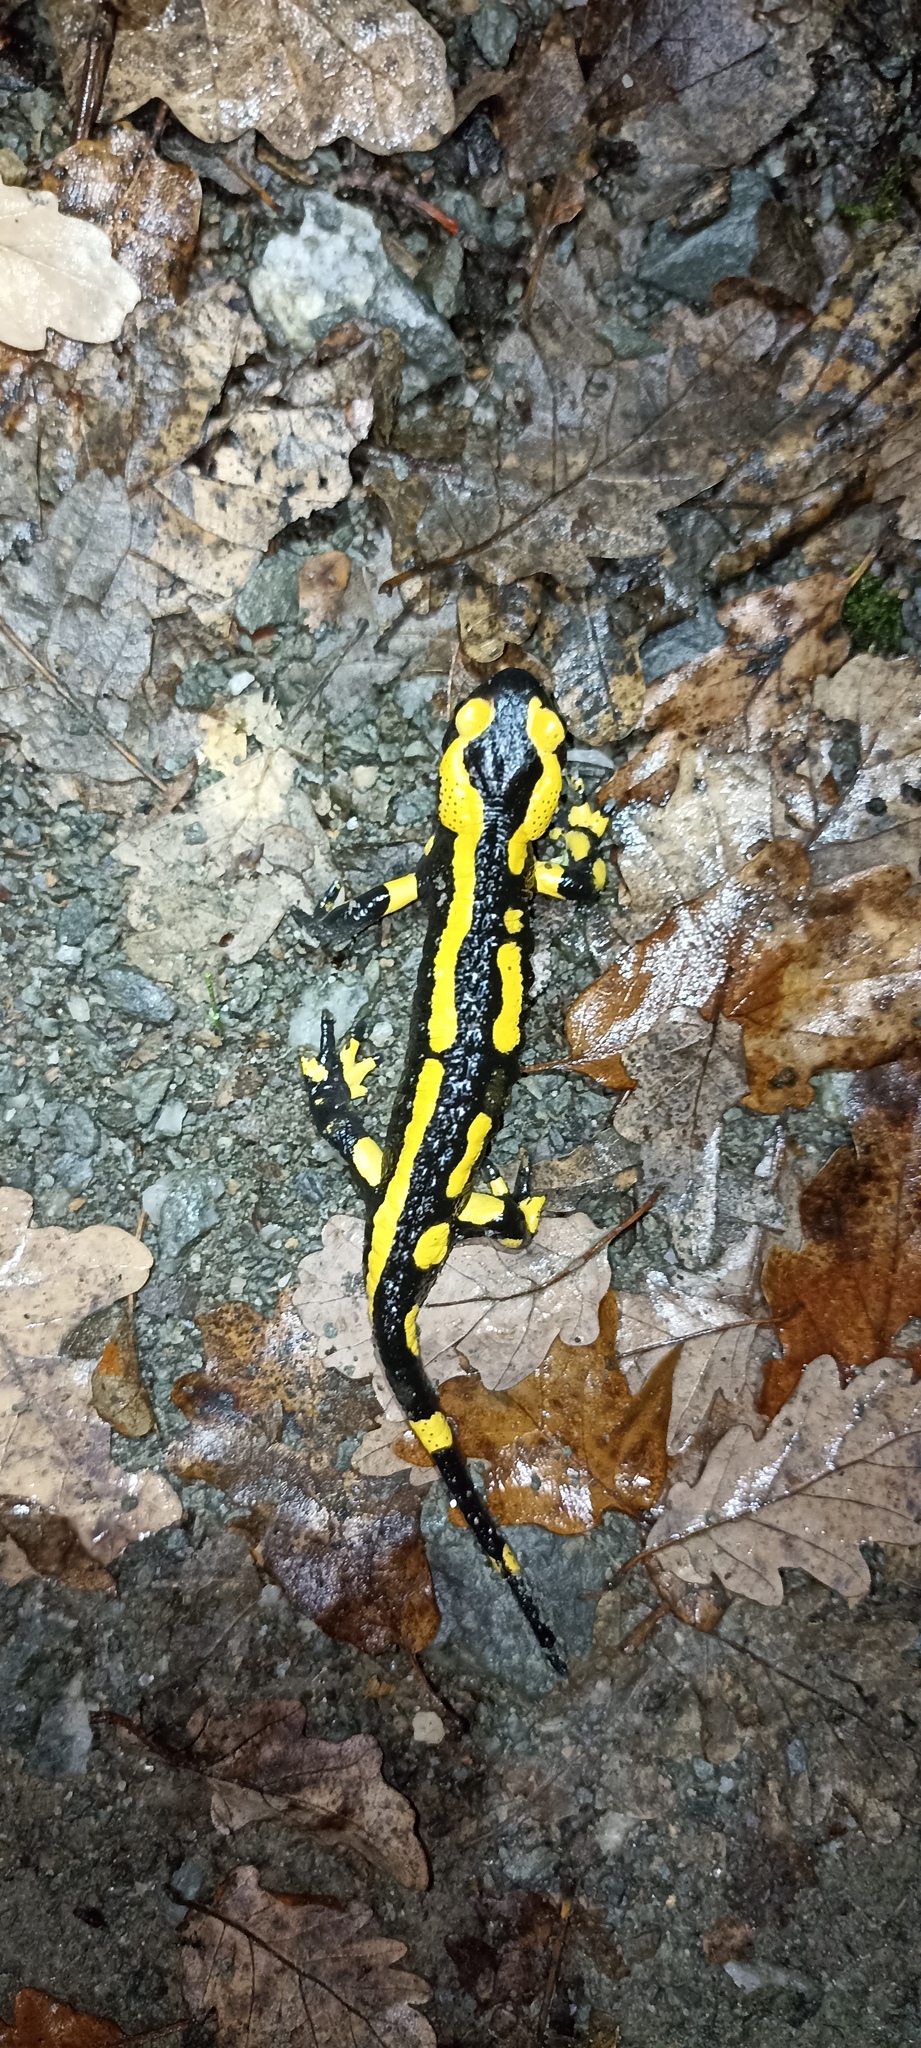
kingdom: Animalia
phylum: Chordata
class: Amphibia
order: Caudata
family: Salamandridae
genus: Salamandra
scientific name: Salamandra salamandra
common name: Fire salamander
